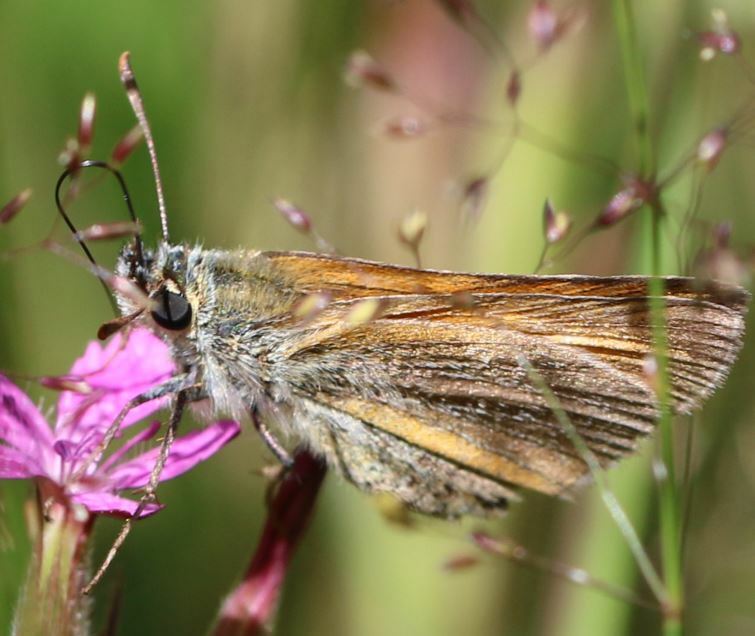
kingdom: Animalia
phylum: Arthropoda
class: Insecta
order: Lepidoptera
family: Hesperiidae
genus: Thymelicus
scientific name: Thymelicus sylvestris
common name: Small skipper
